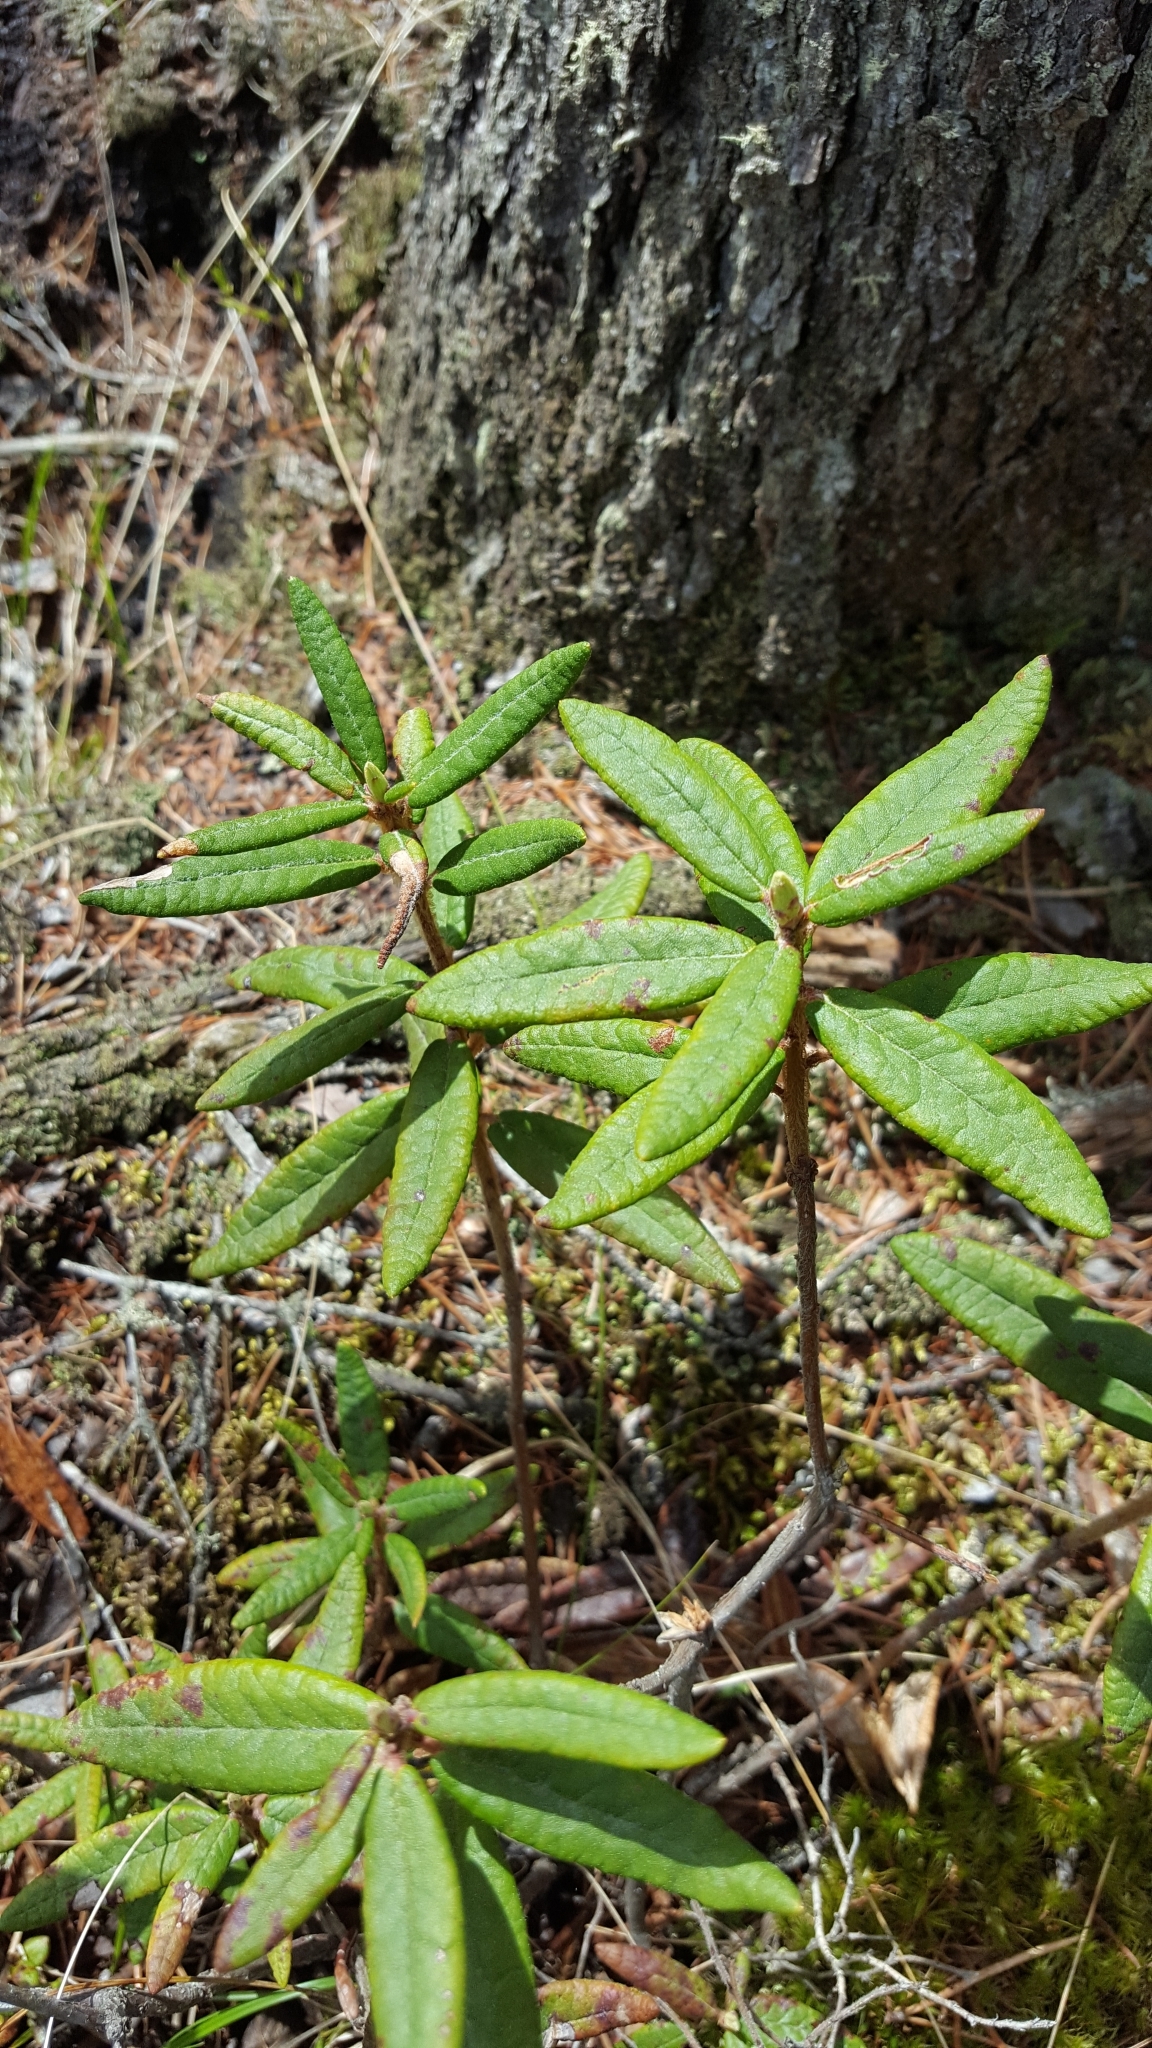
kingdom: Plantae
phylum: Tracheophyta
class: Magnoliopsida
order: Ericales
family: Ericaceae
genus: Rhododendron
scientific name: Rhododendron groenlandicum
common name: Bog labrador tea
